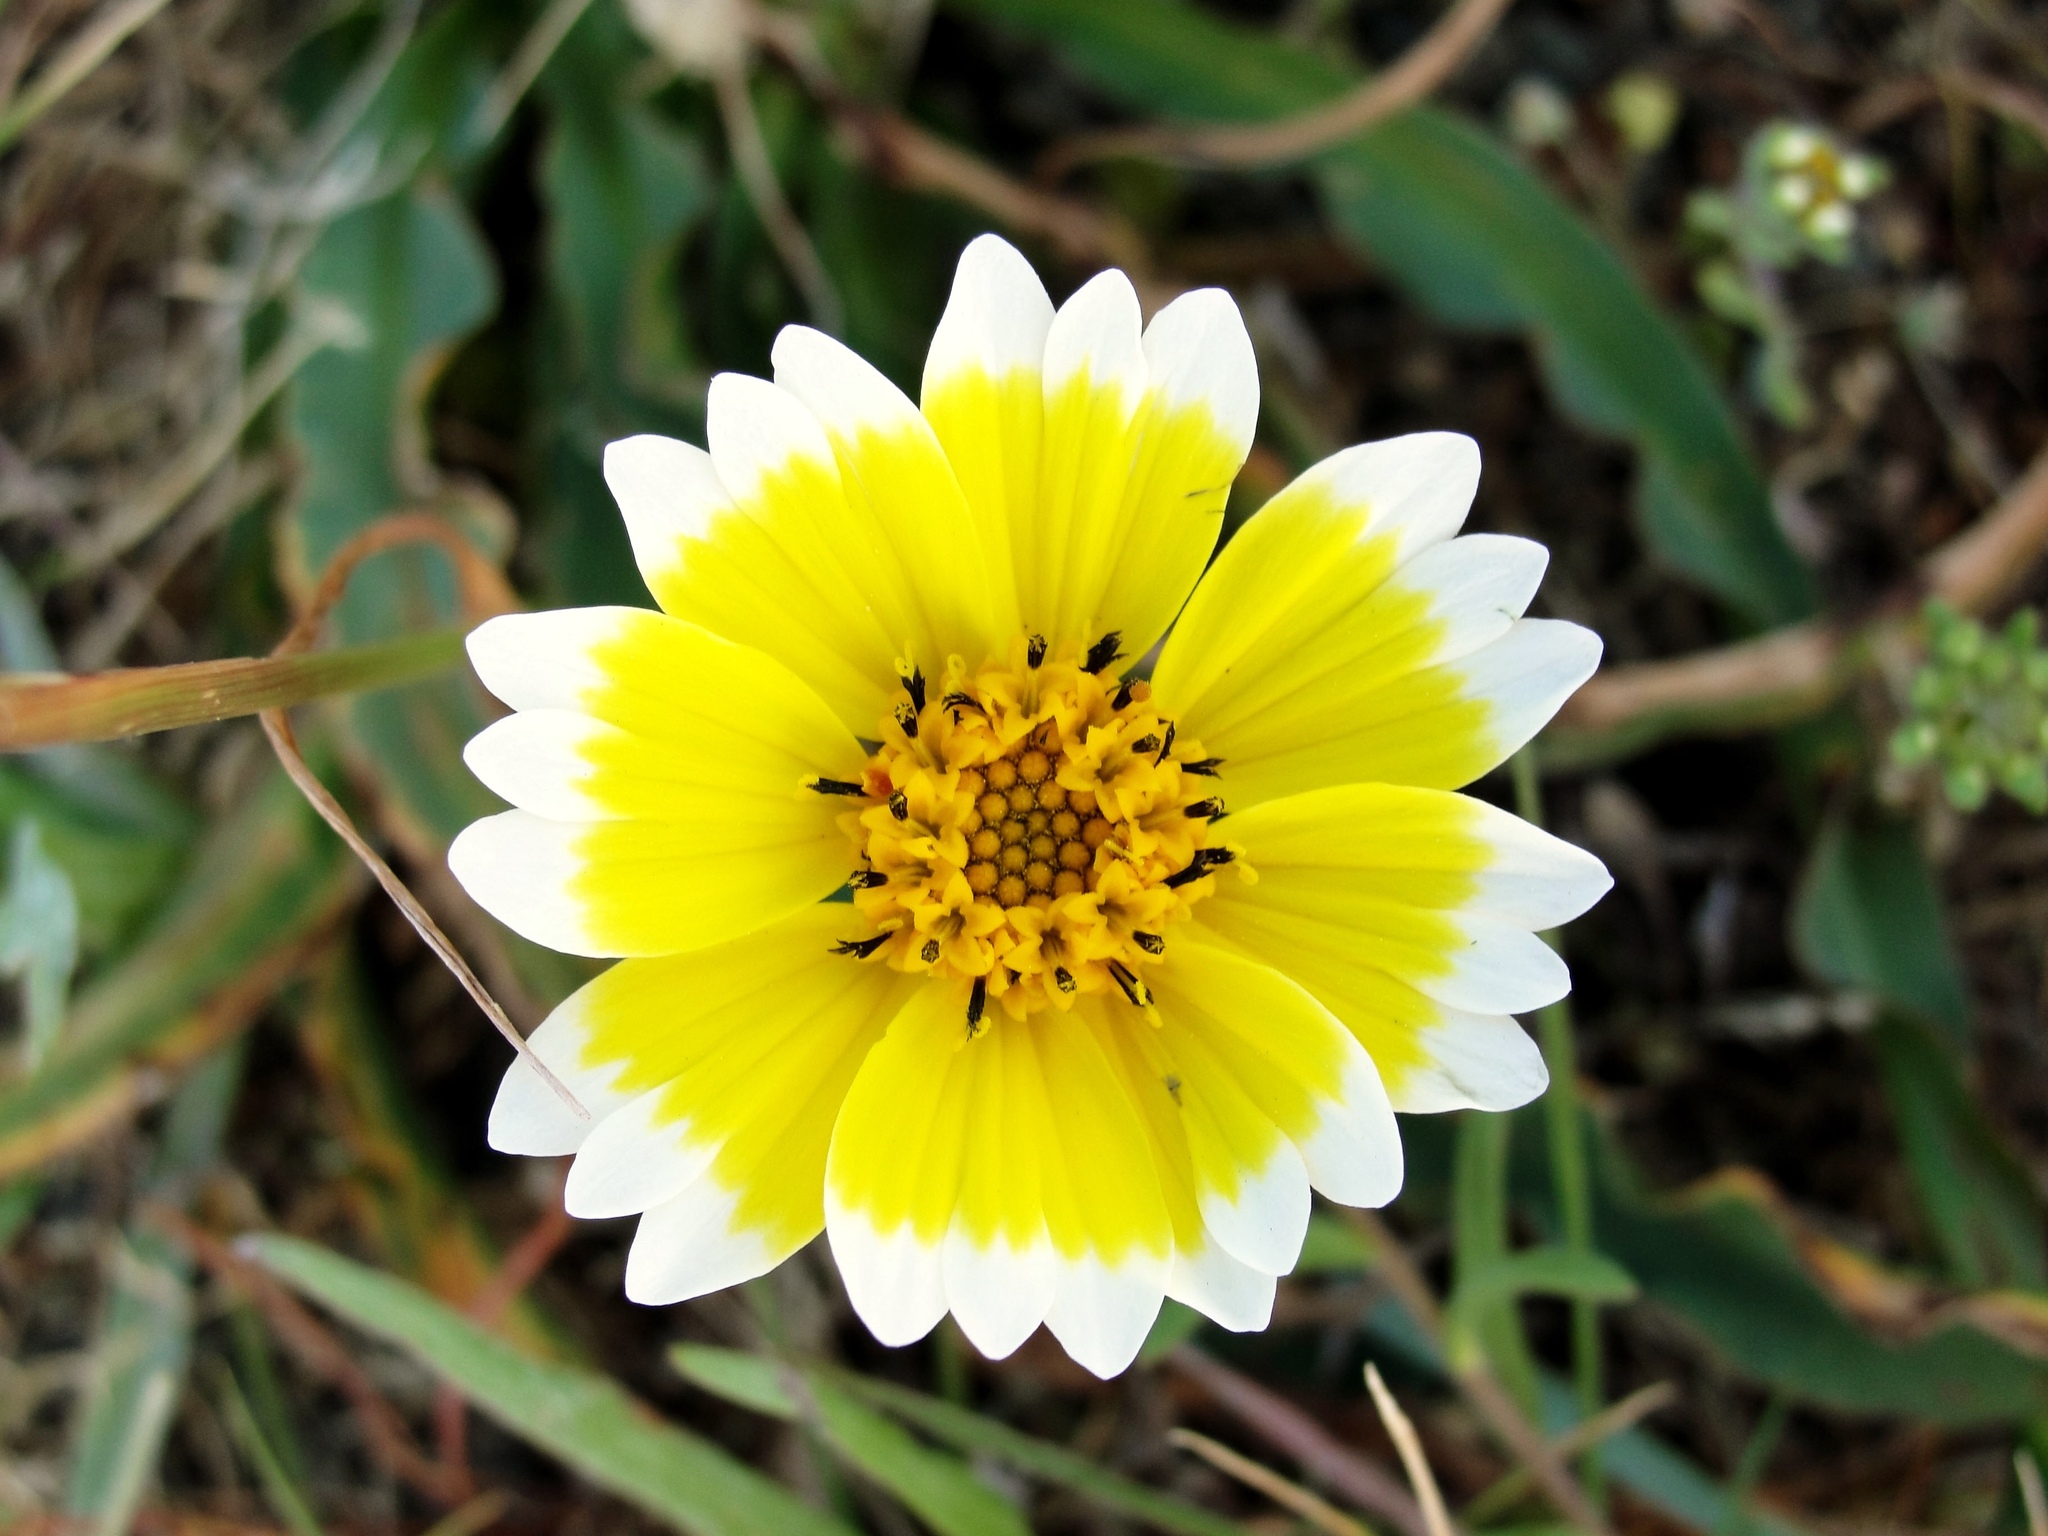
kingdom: Plantae
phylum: Tracheophyta
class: Magnoliopsida
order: Asterales
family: Asteraceae
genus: Layia
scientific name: Layia platyglossa
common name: Tidy-tips
